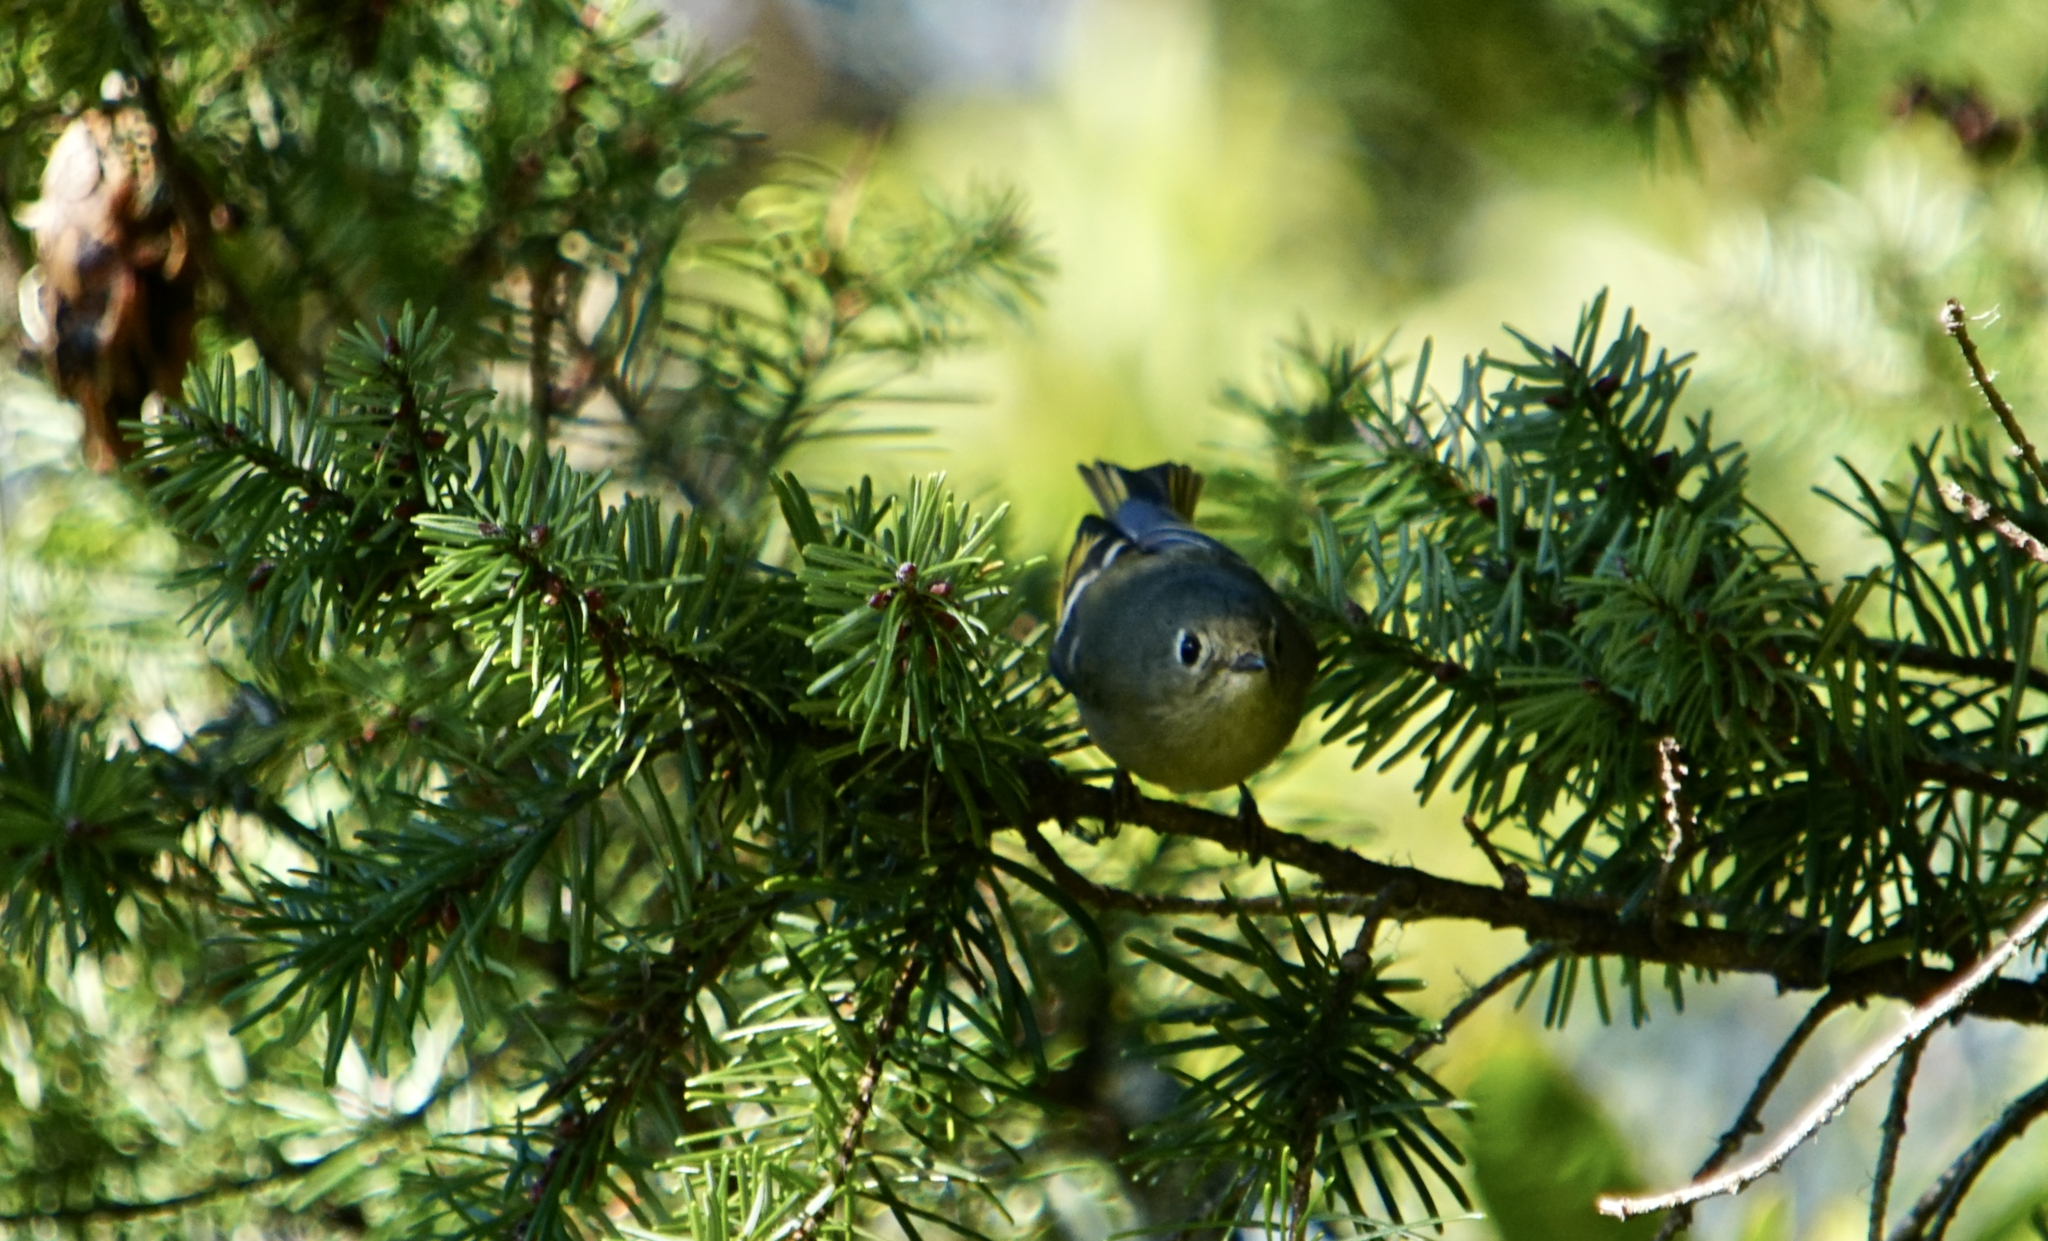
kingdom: Animalia
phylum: Chordata
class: Aves
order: Passeriformes
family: Regulidae
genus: Regulus
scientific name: Regulus calendula
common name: Ruby-crowned kinglet
